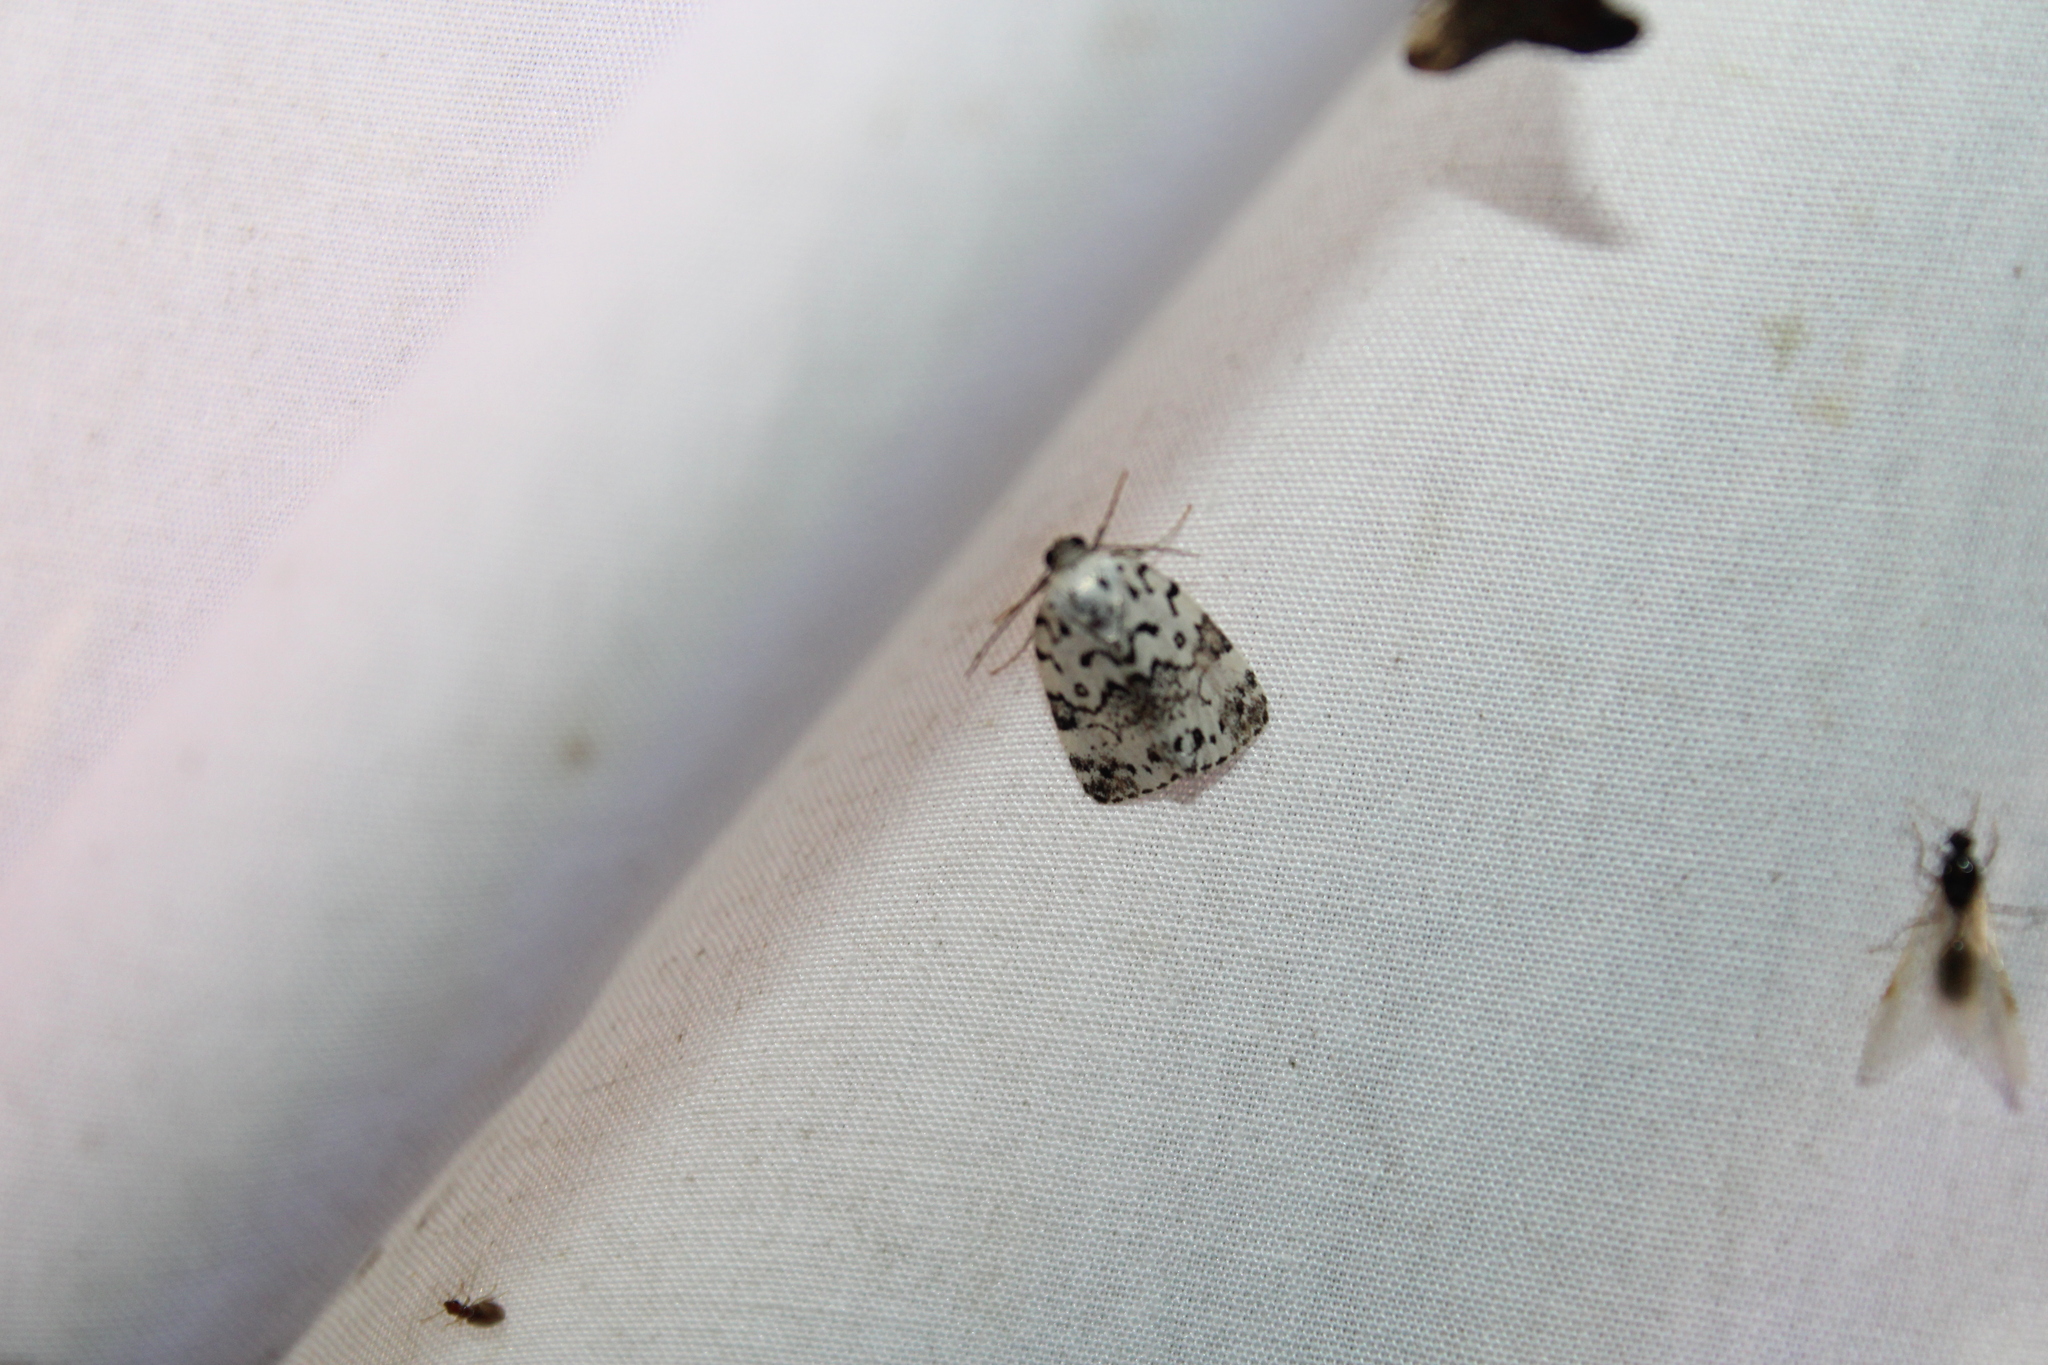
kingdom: Animalia
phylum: Arthropoda
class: Insecta
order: Lepidoptera
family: Noctuidae
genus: Polygrammate
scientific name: Polygrammate hebraeicum
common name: Hebrew moth
